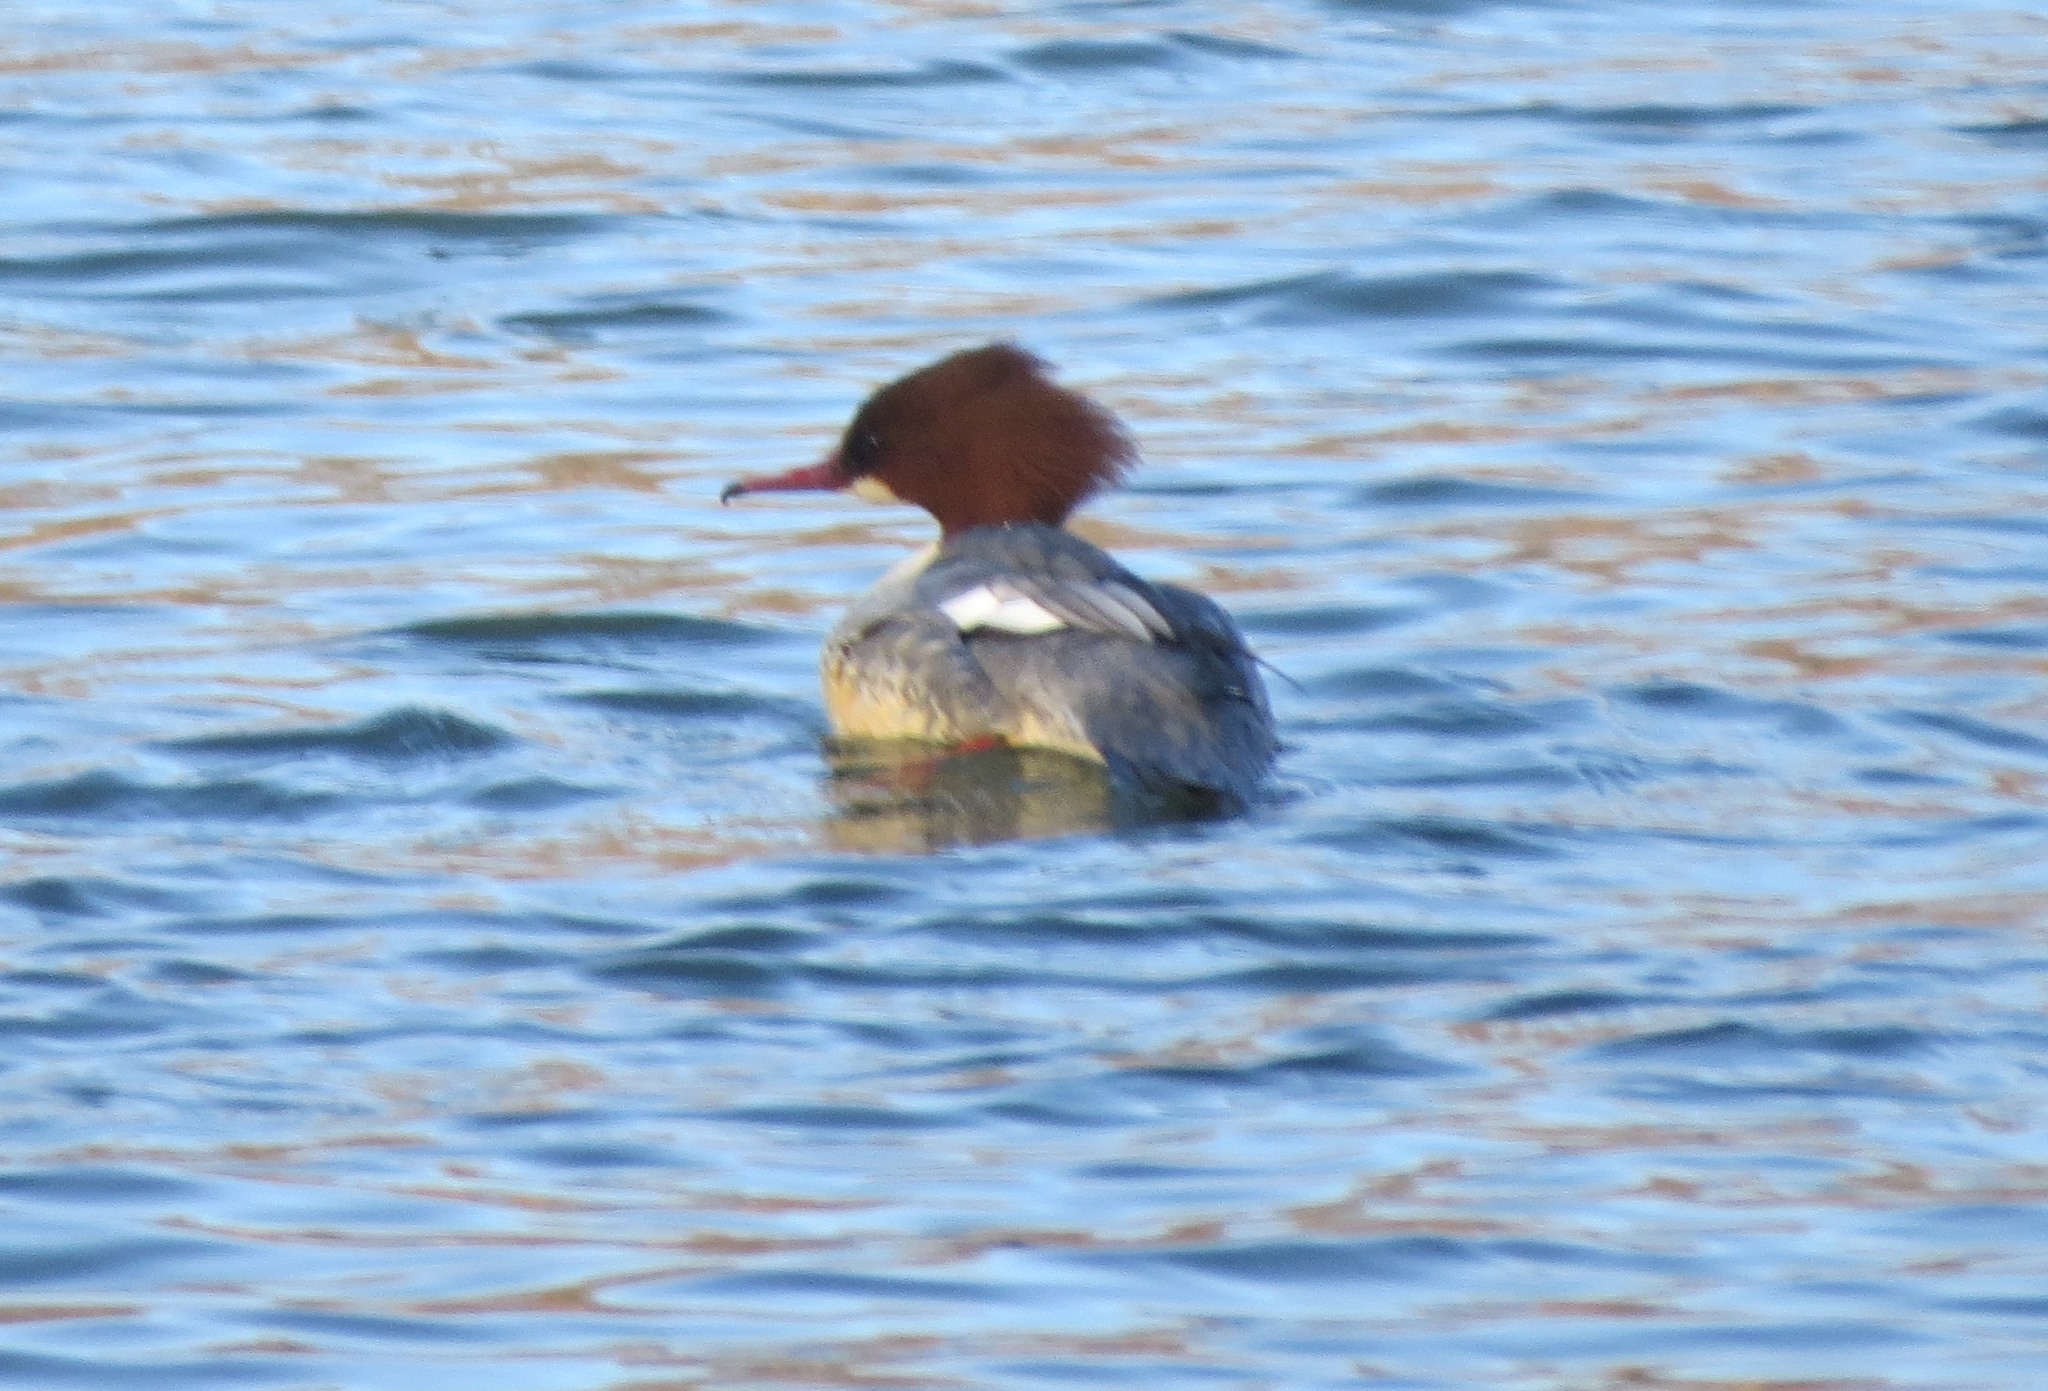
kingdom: Animalia
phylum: Chordata
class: Aves
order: Anseriformes
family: Anatidae
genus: Mergus
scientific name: Mergus merganser
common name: Common merganser
